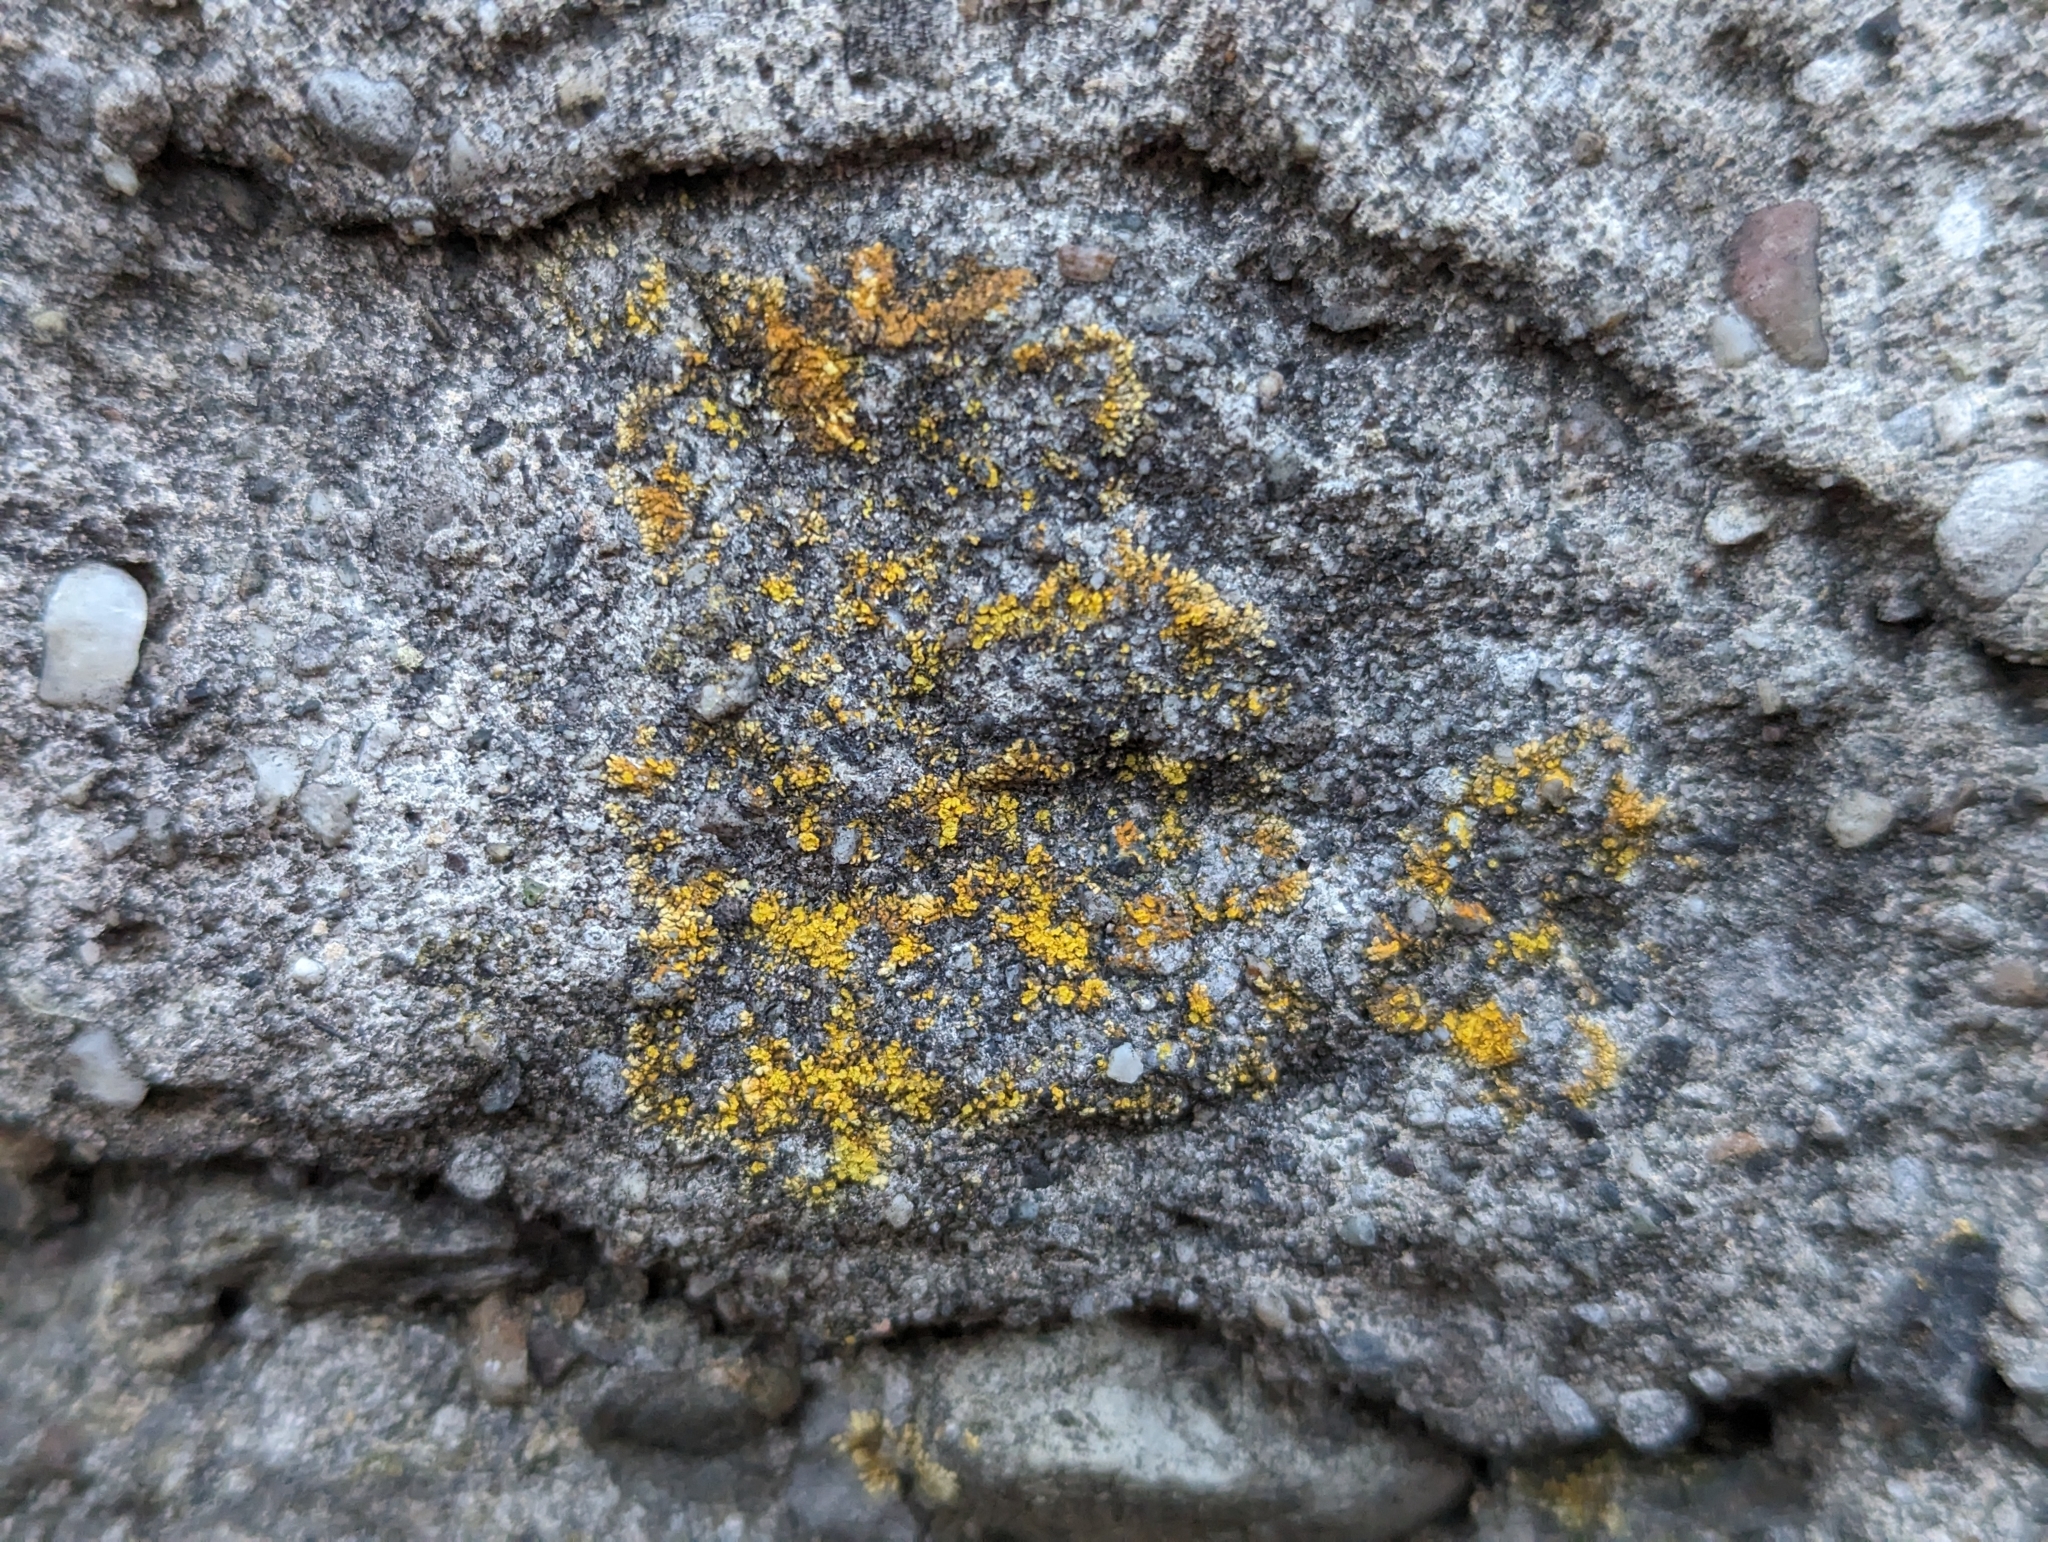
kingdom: Fungi
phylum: Ascomycota
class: Lecanoromycetes
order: Teloschistales
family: Teloschistaceae
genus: Leproplaca
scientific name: Leproplaca cirrochroa
